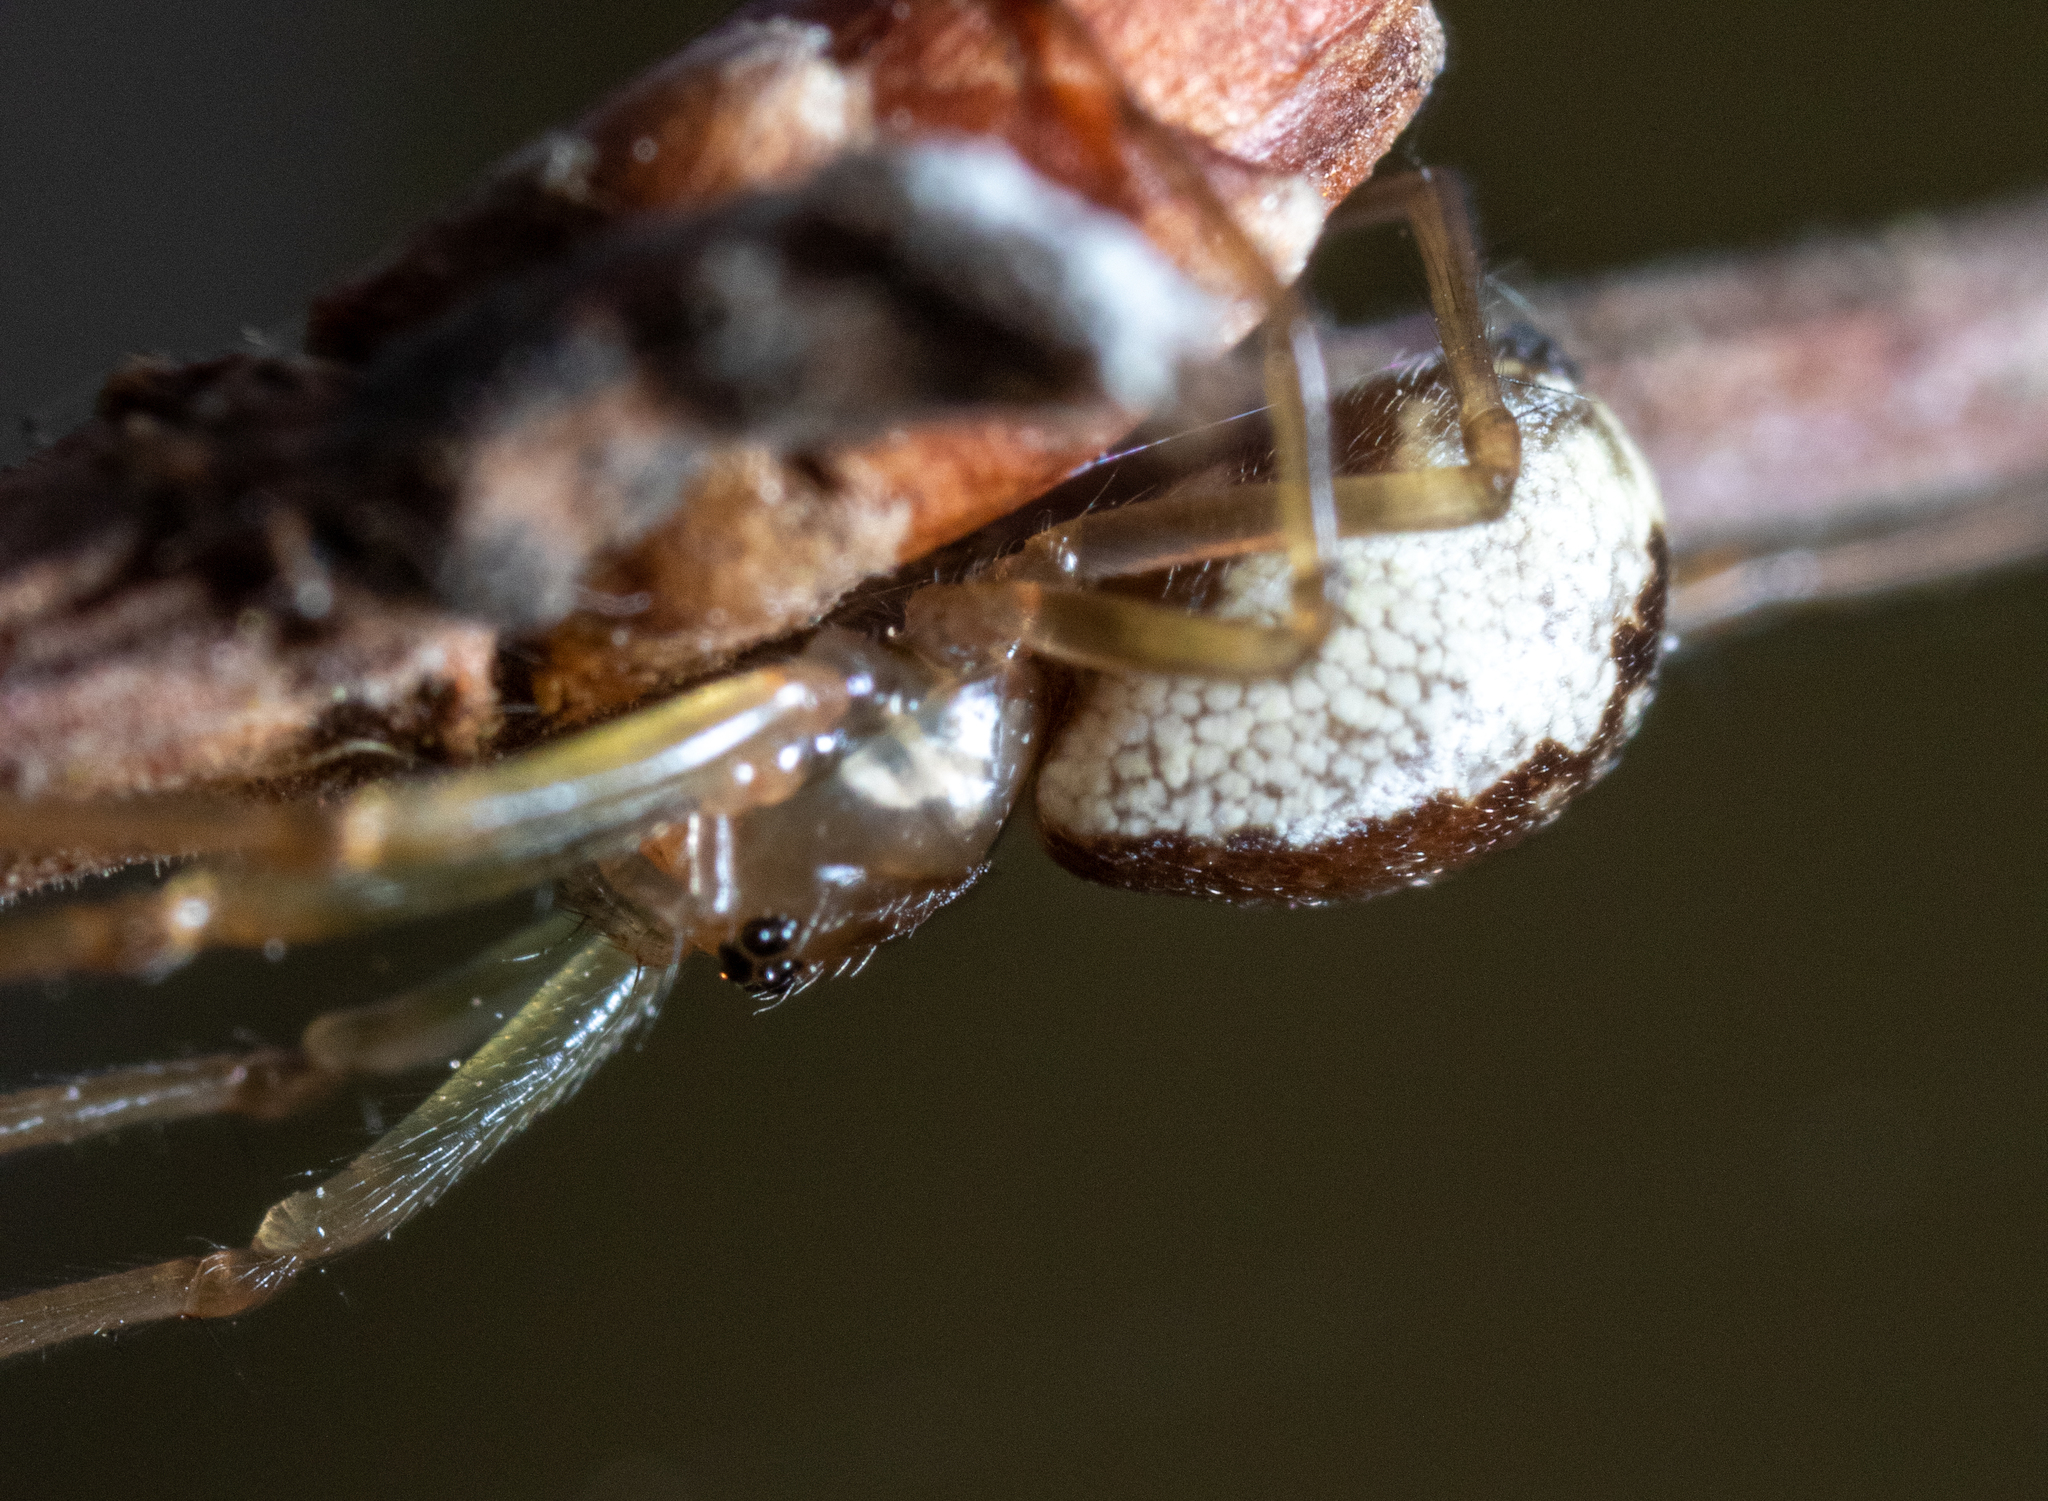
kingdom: Animalia
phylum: Arthropoda
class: Arachnida
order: Araneae
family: Linyphiidae
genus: Neriene
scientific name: Neriene peltata
